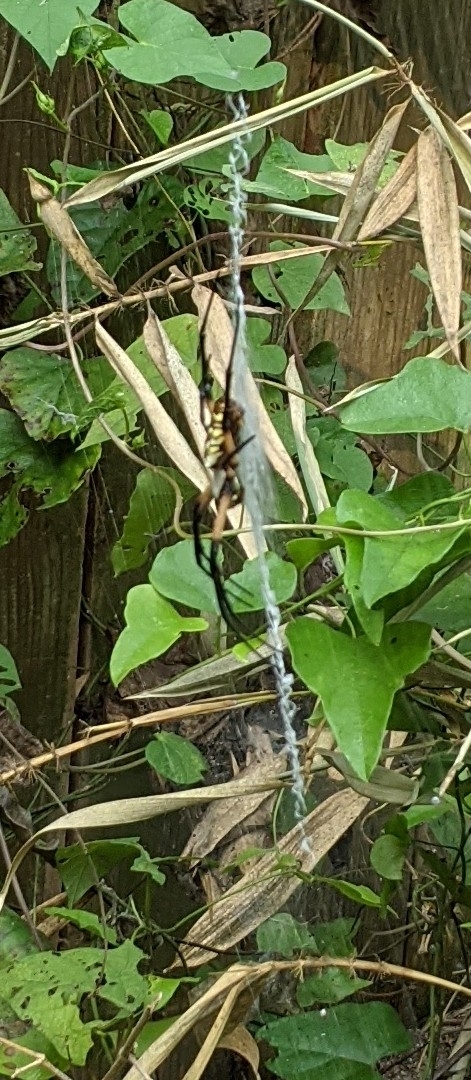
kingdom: Animalia
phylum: Arthropoda
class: Arachnida
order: Araneae
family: Araneidae
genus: Argiope
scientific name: Argiope aurantia
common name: Orb weavers
